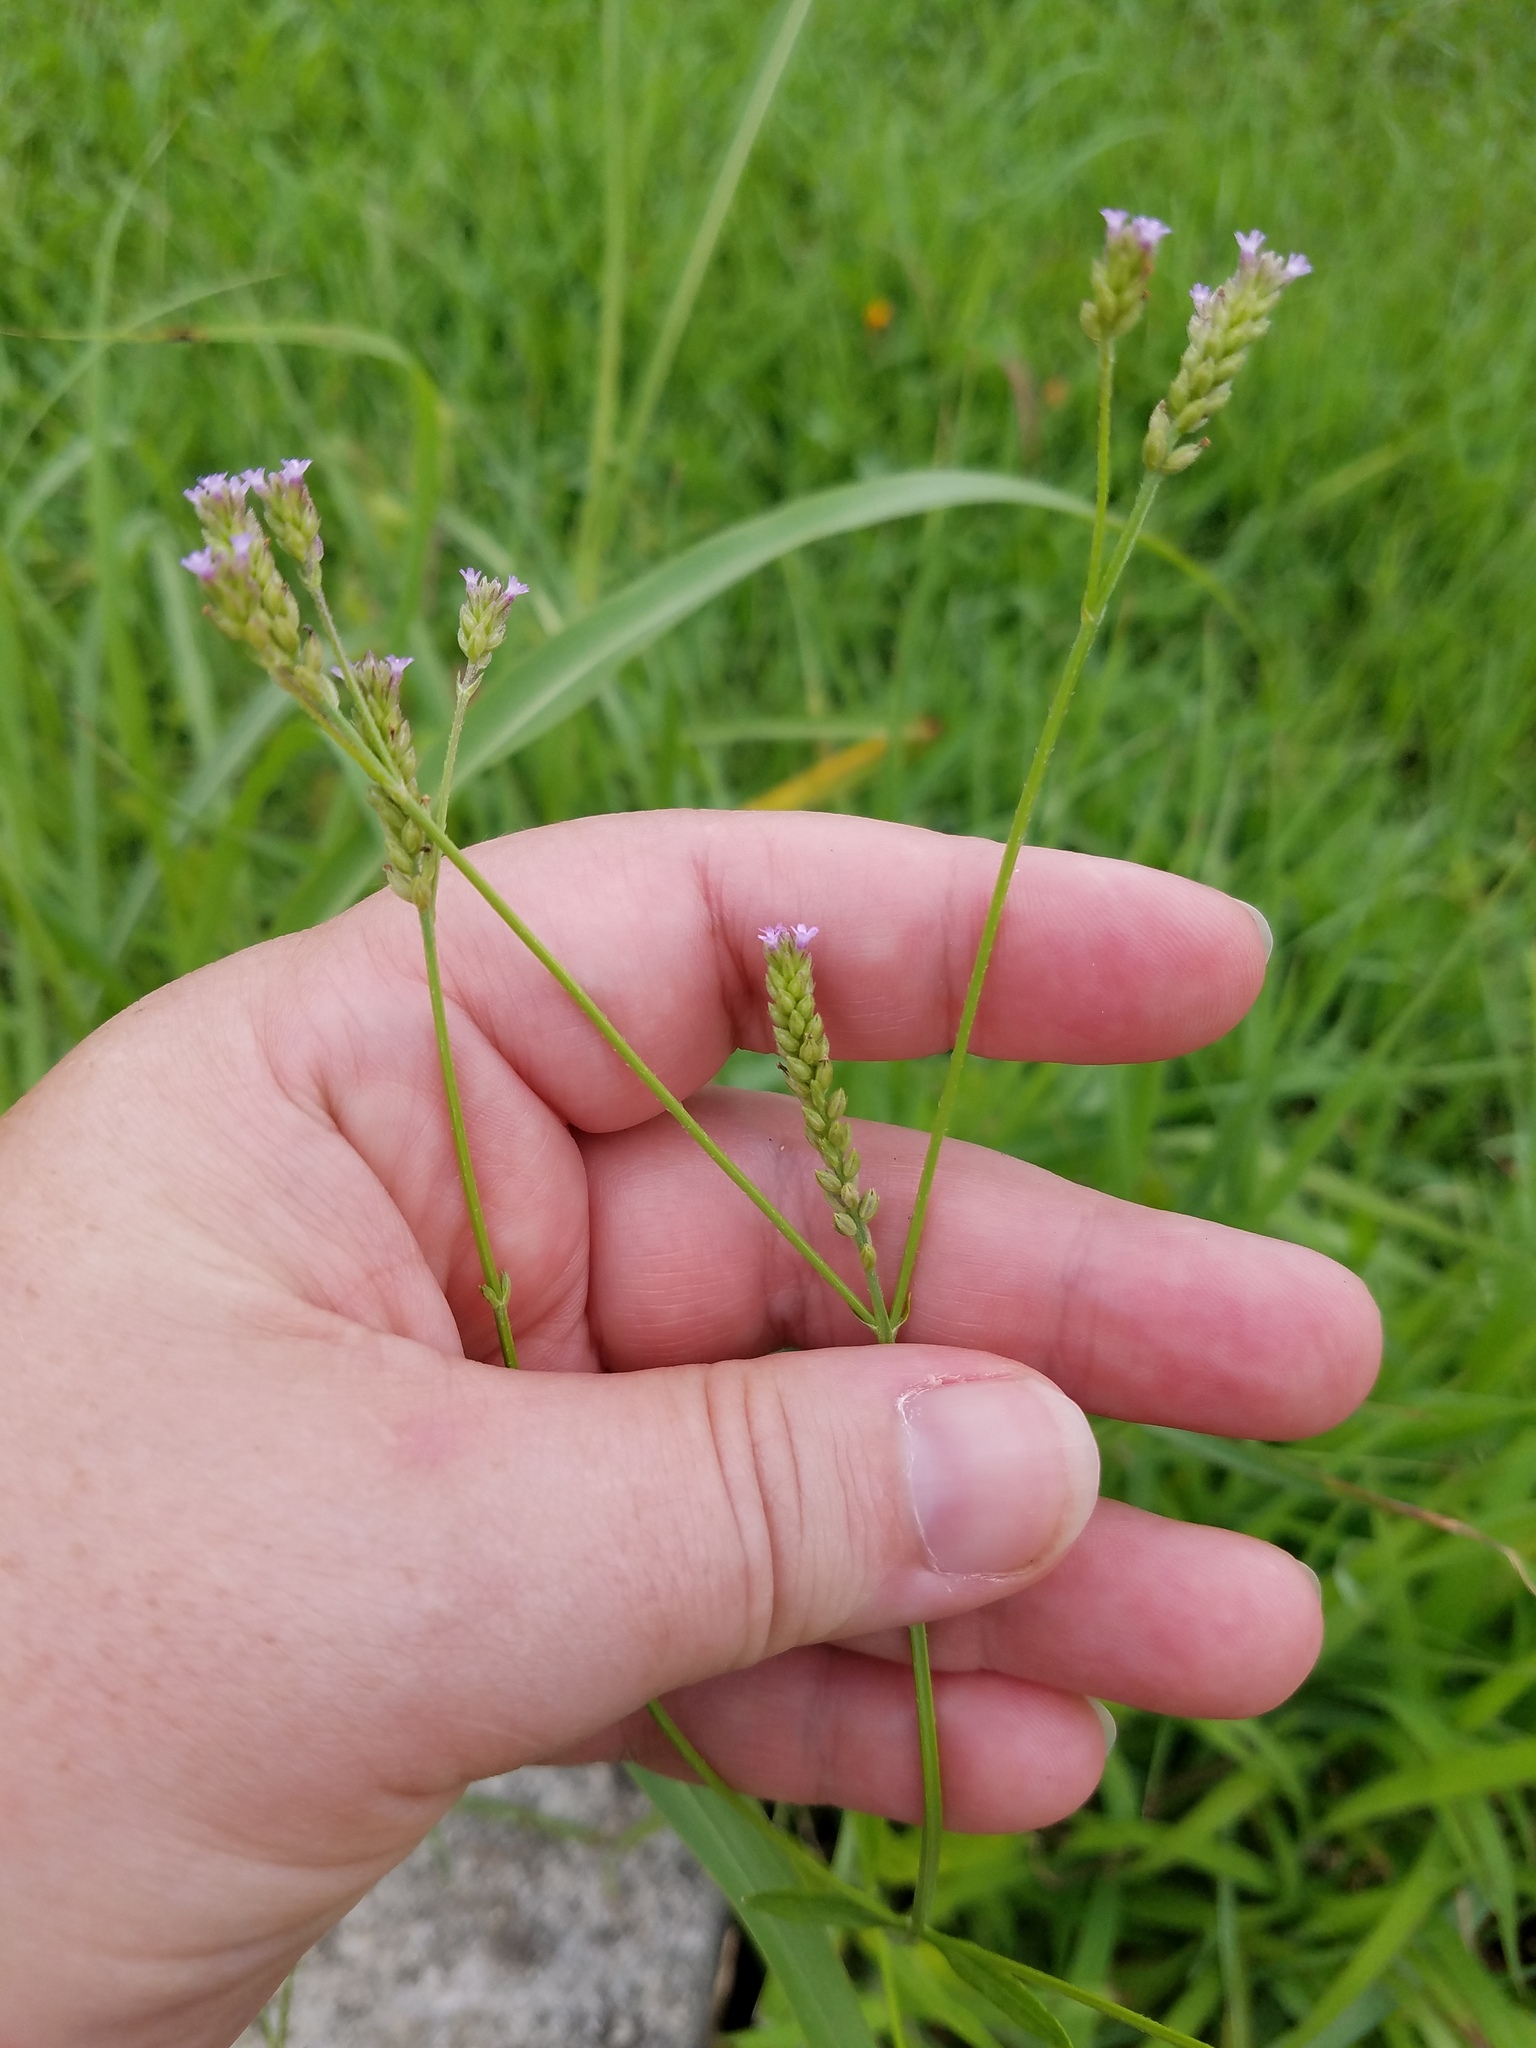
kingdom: Plantae
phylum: Tracheophyta
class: Magnoliopsida
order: Lamiales
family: Verbenaceae
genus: Verbena
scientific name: Verbena brasiliensis
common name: Brazilian vervain
